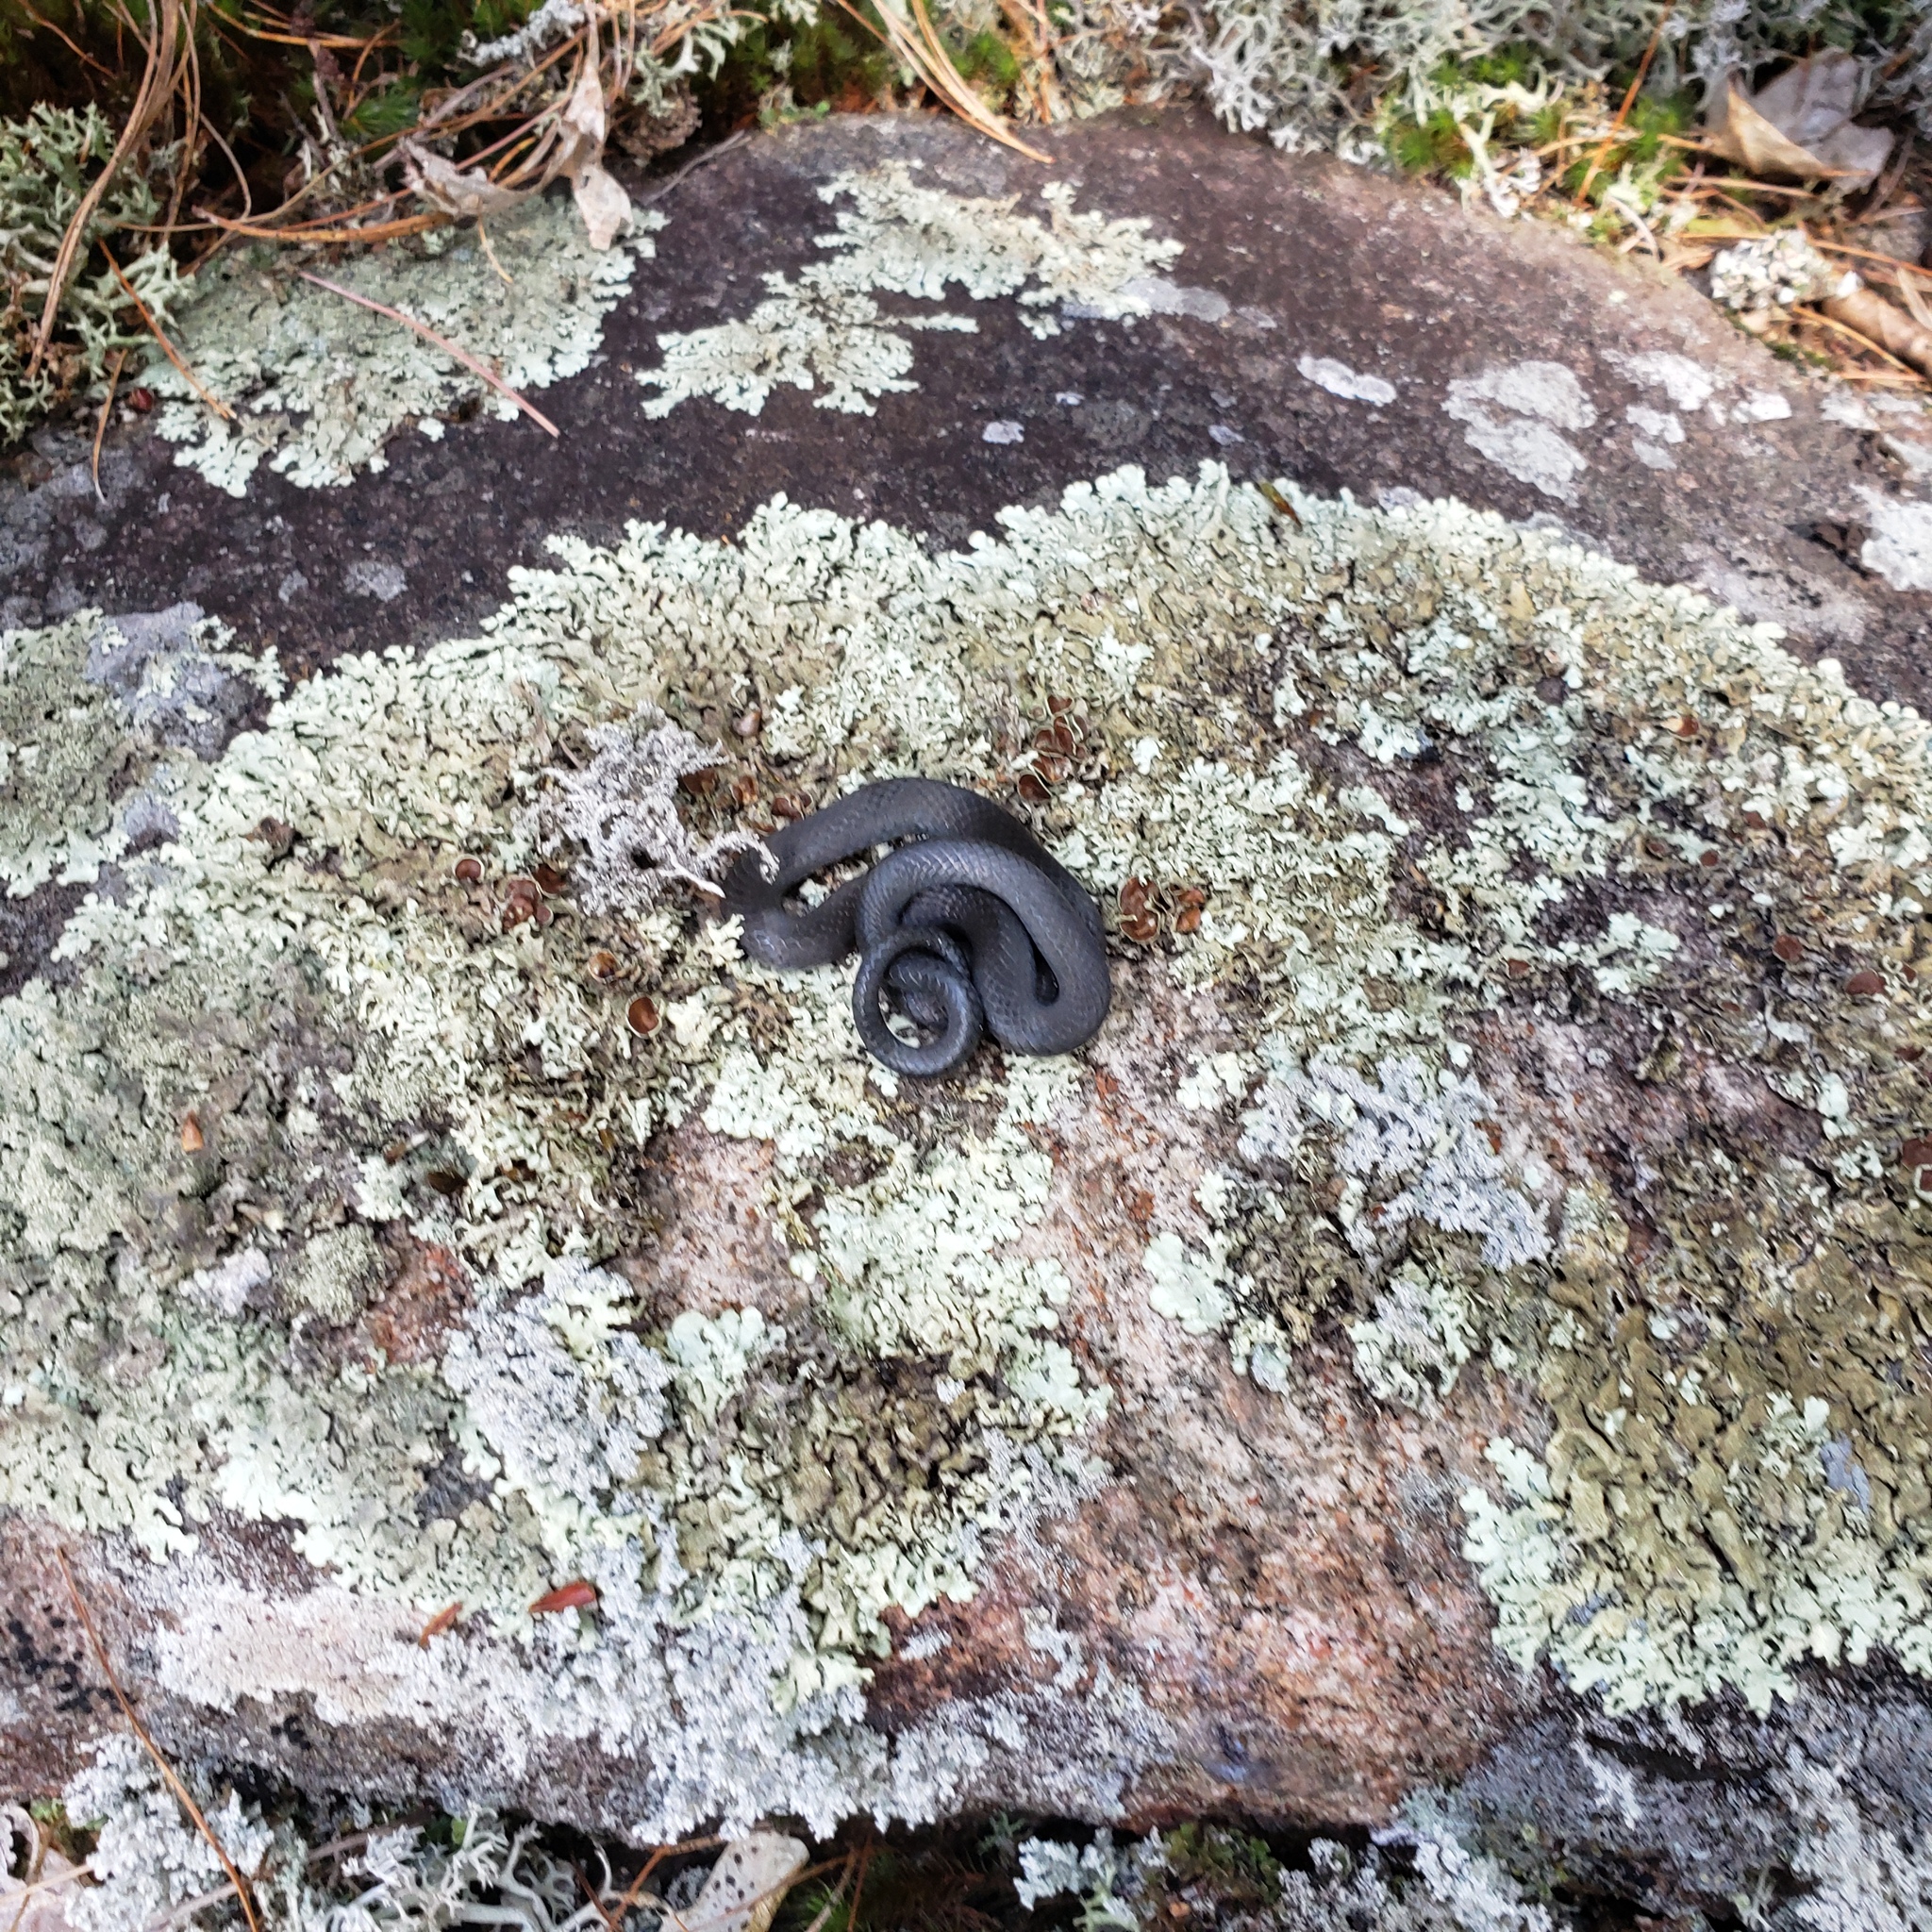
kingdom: Animalia
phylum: Chordata
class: Squamata
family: Colubridae
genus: Diadophis
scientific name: Diadophis punctatus
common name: Ringneck snake
